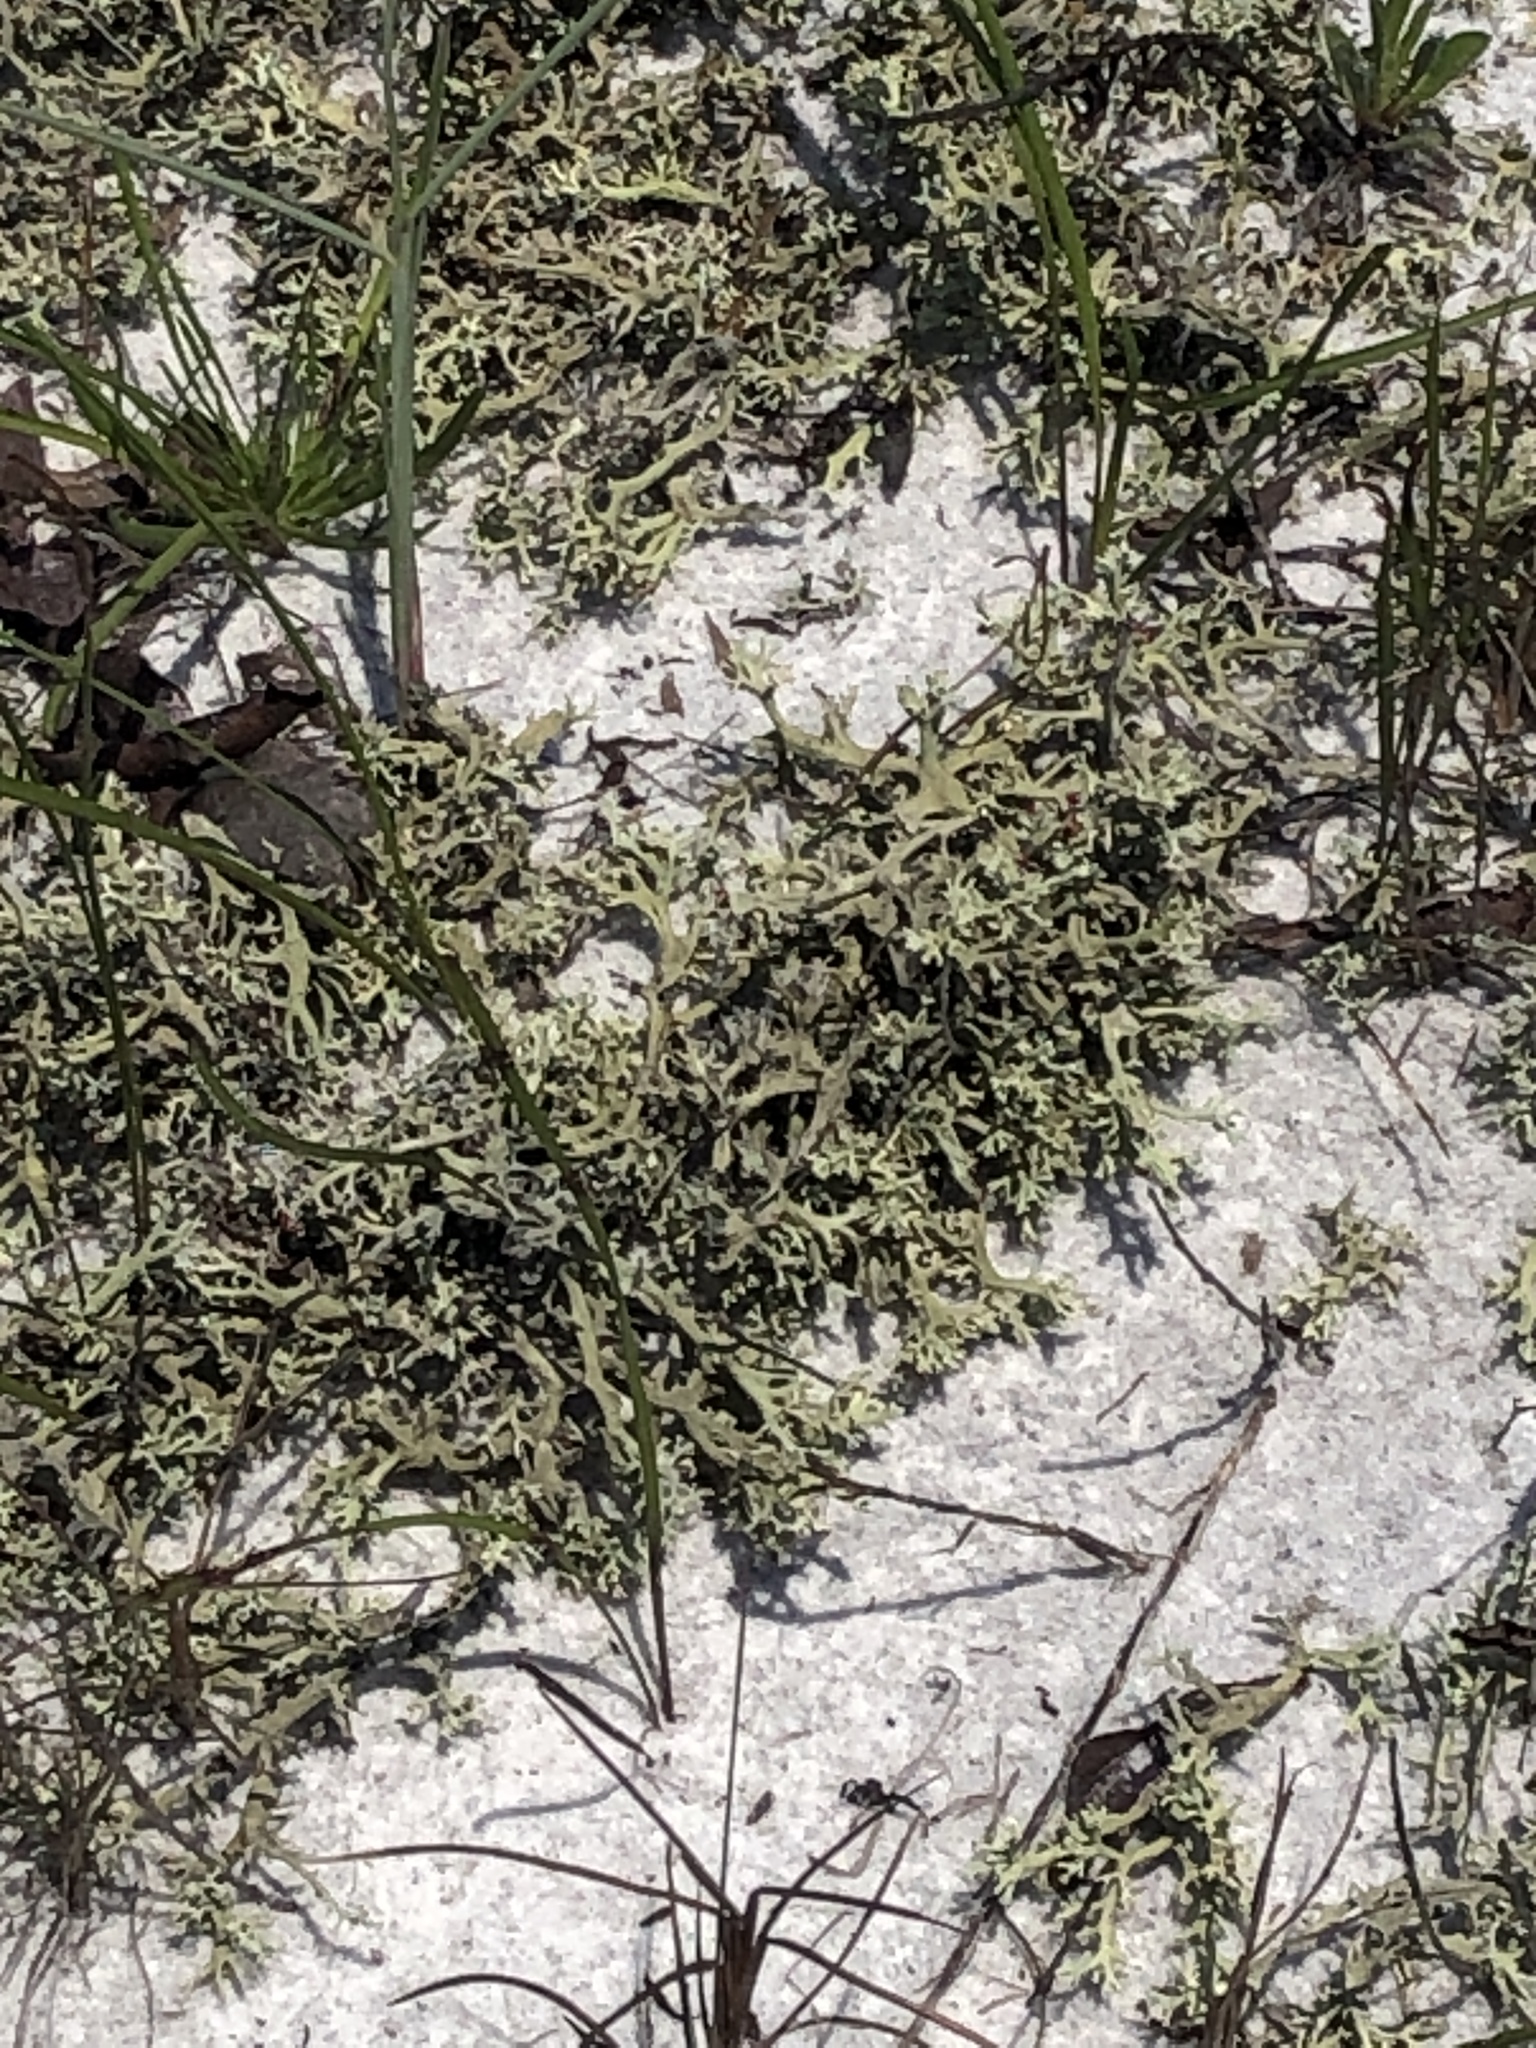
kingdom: Fungi
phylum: Ascomycota
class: Lecanoromycetes
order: Lecanorales
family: Cladoniaceae
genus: Cladonia
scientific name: Cladonia leporina
